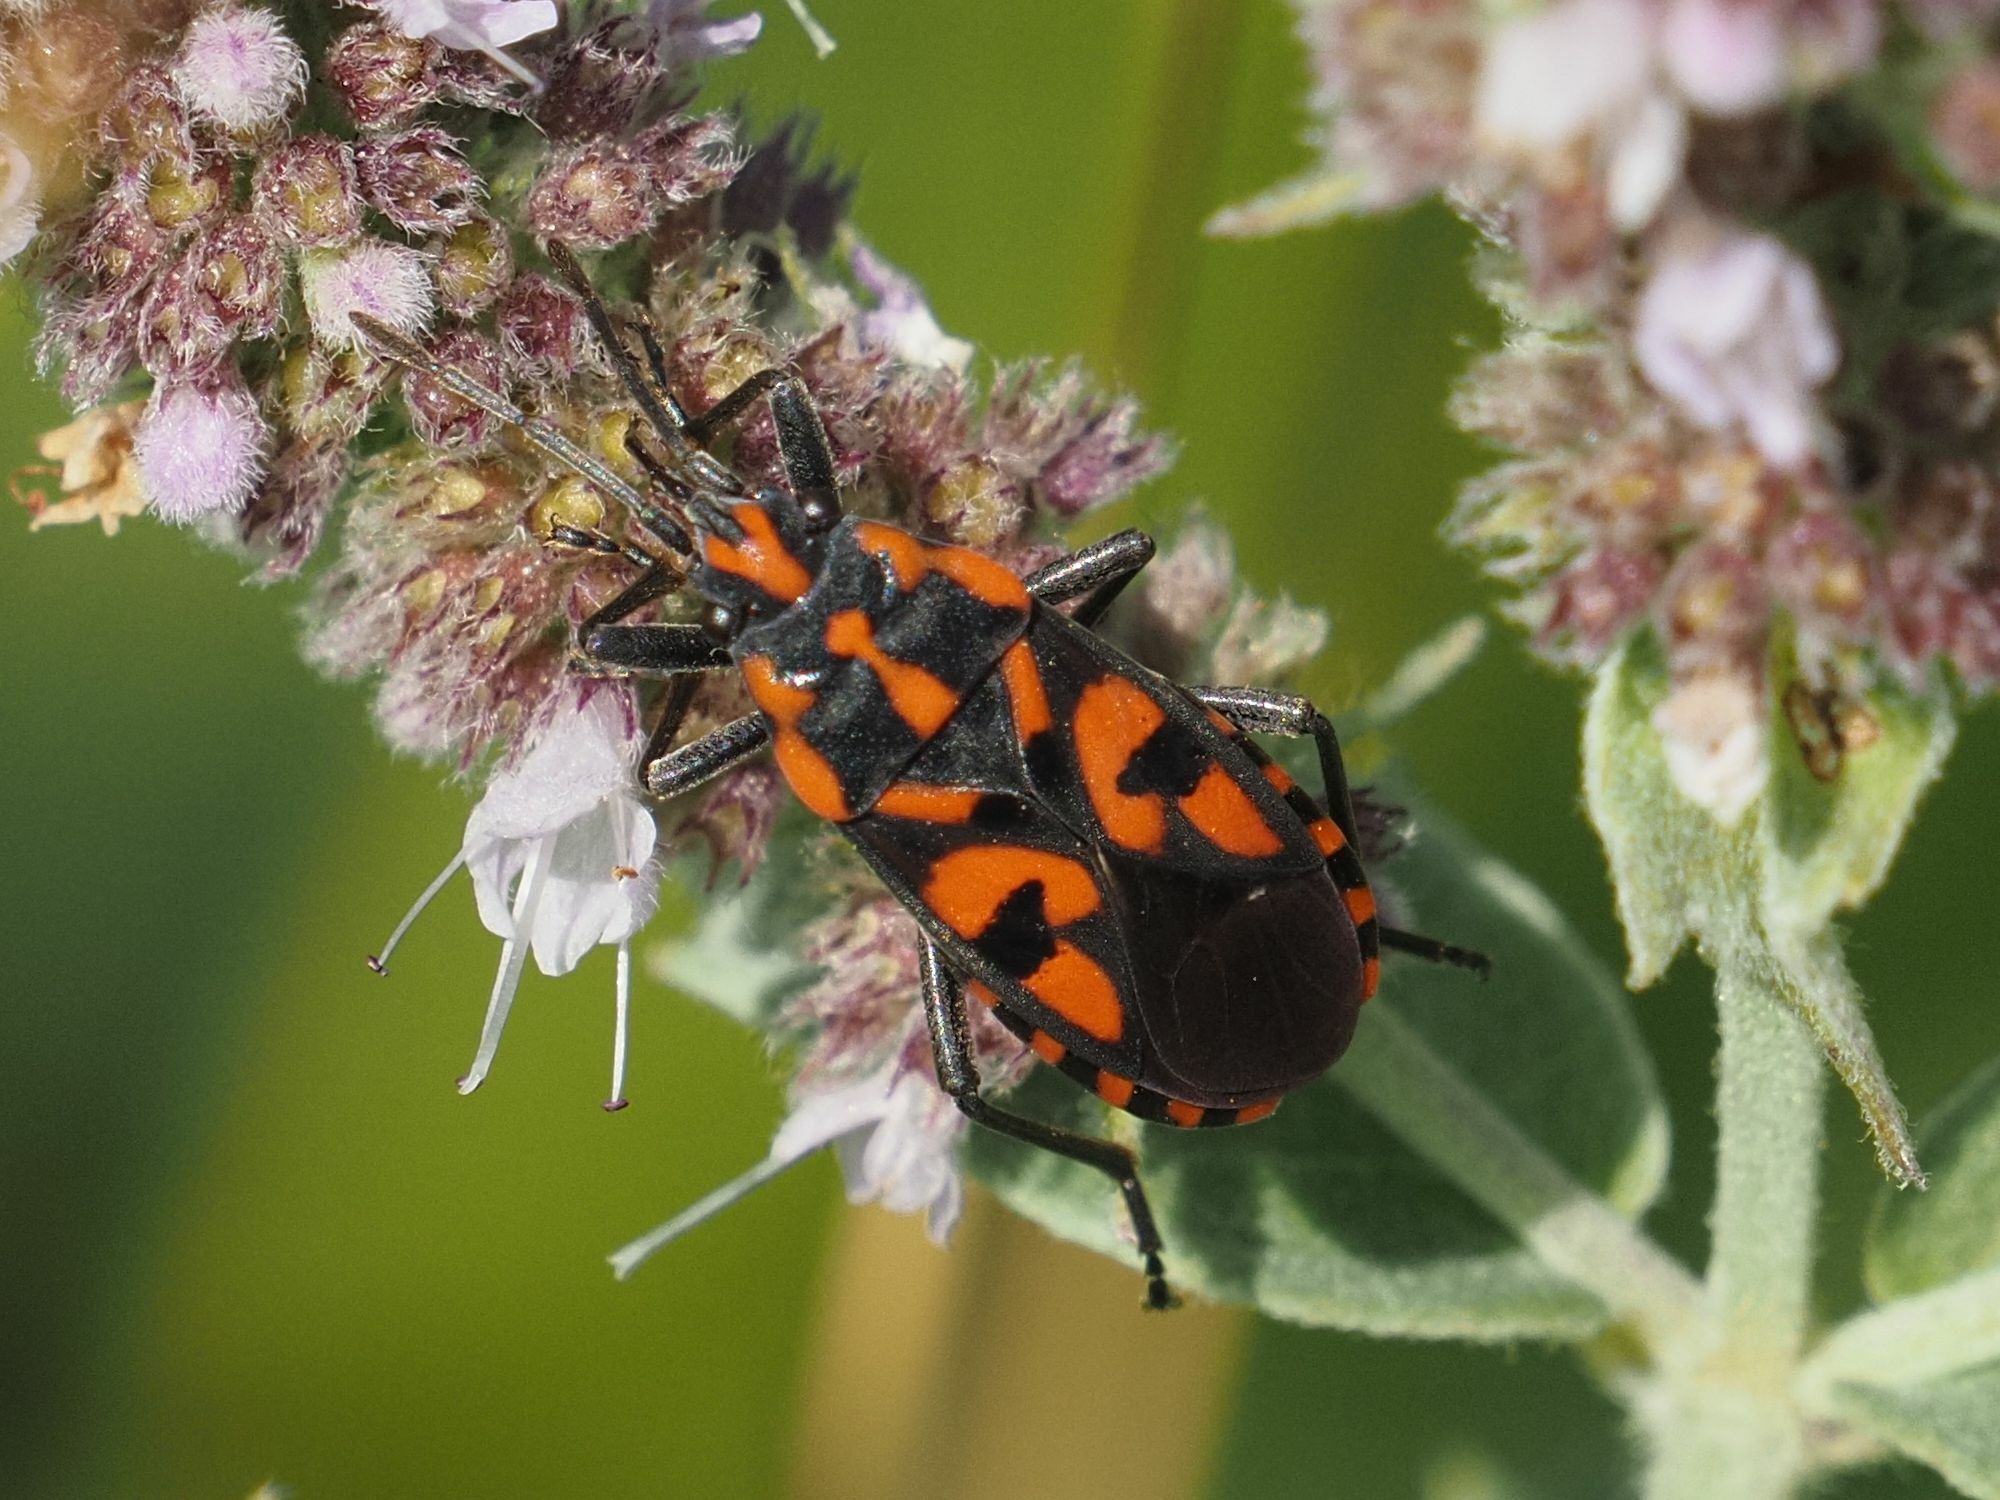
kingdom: Animalia
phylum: Arthropoda
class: Insecta
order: Hemiptera
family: Lygaeidae
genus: Spilostethus
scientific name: Spilostethus saxatilis
